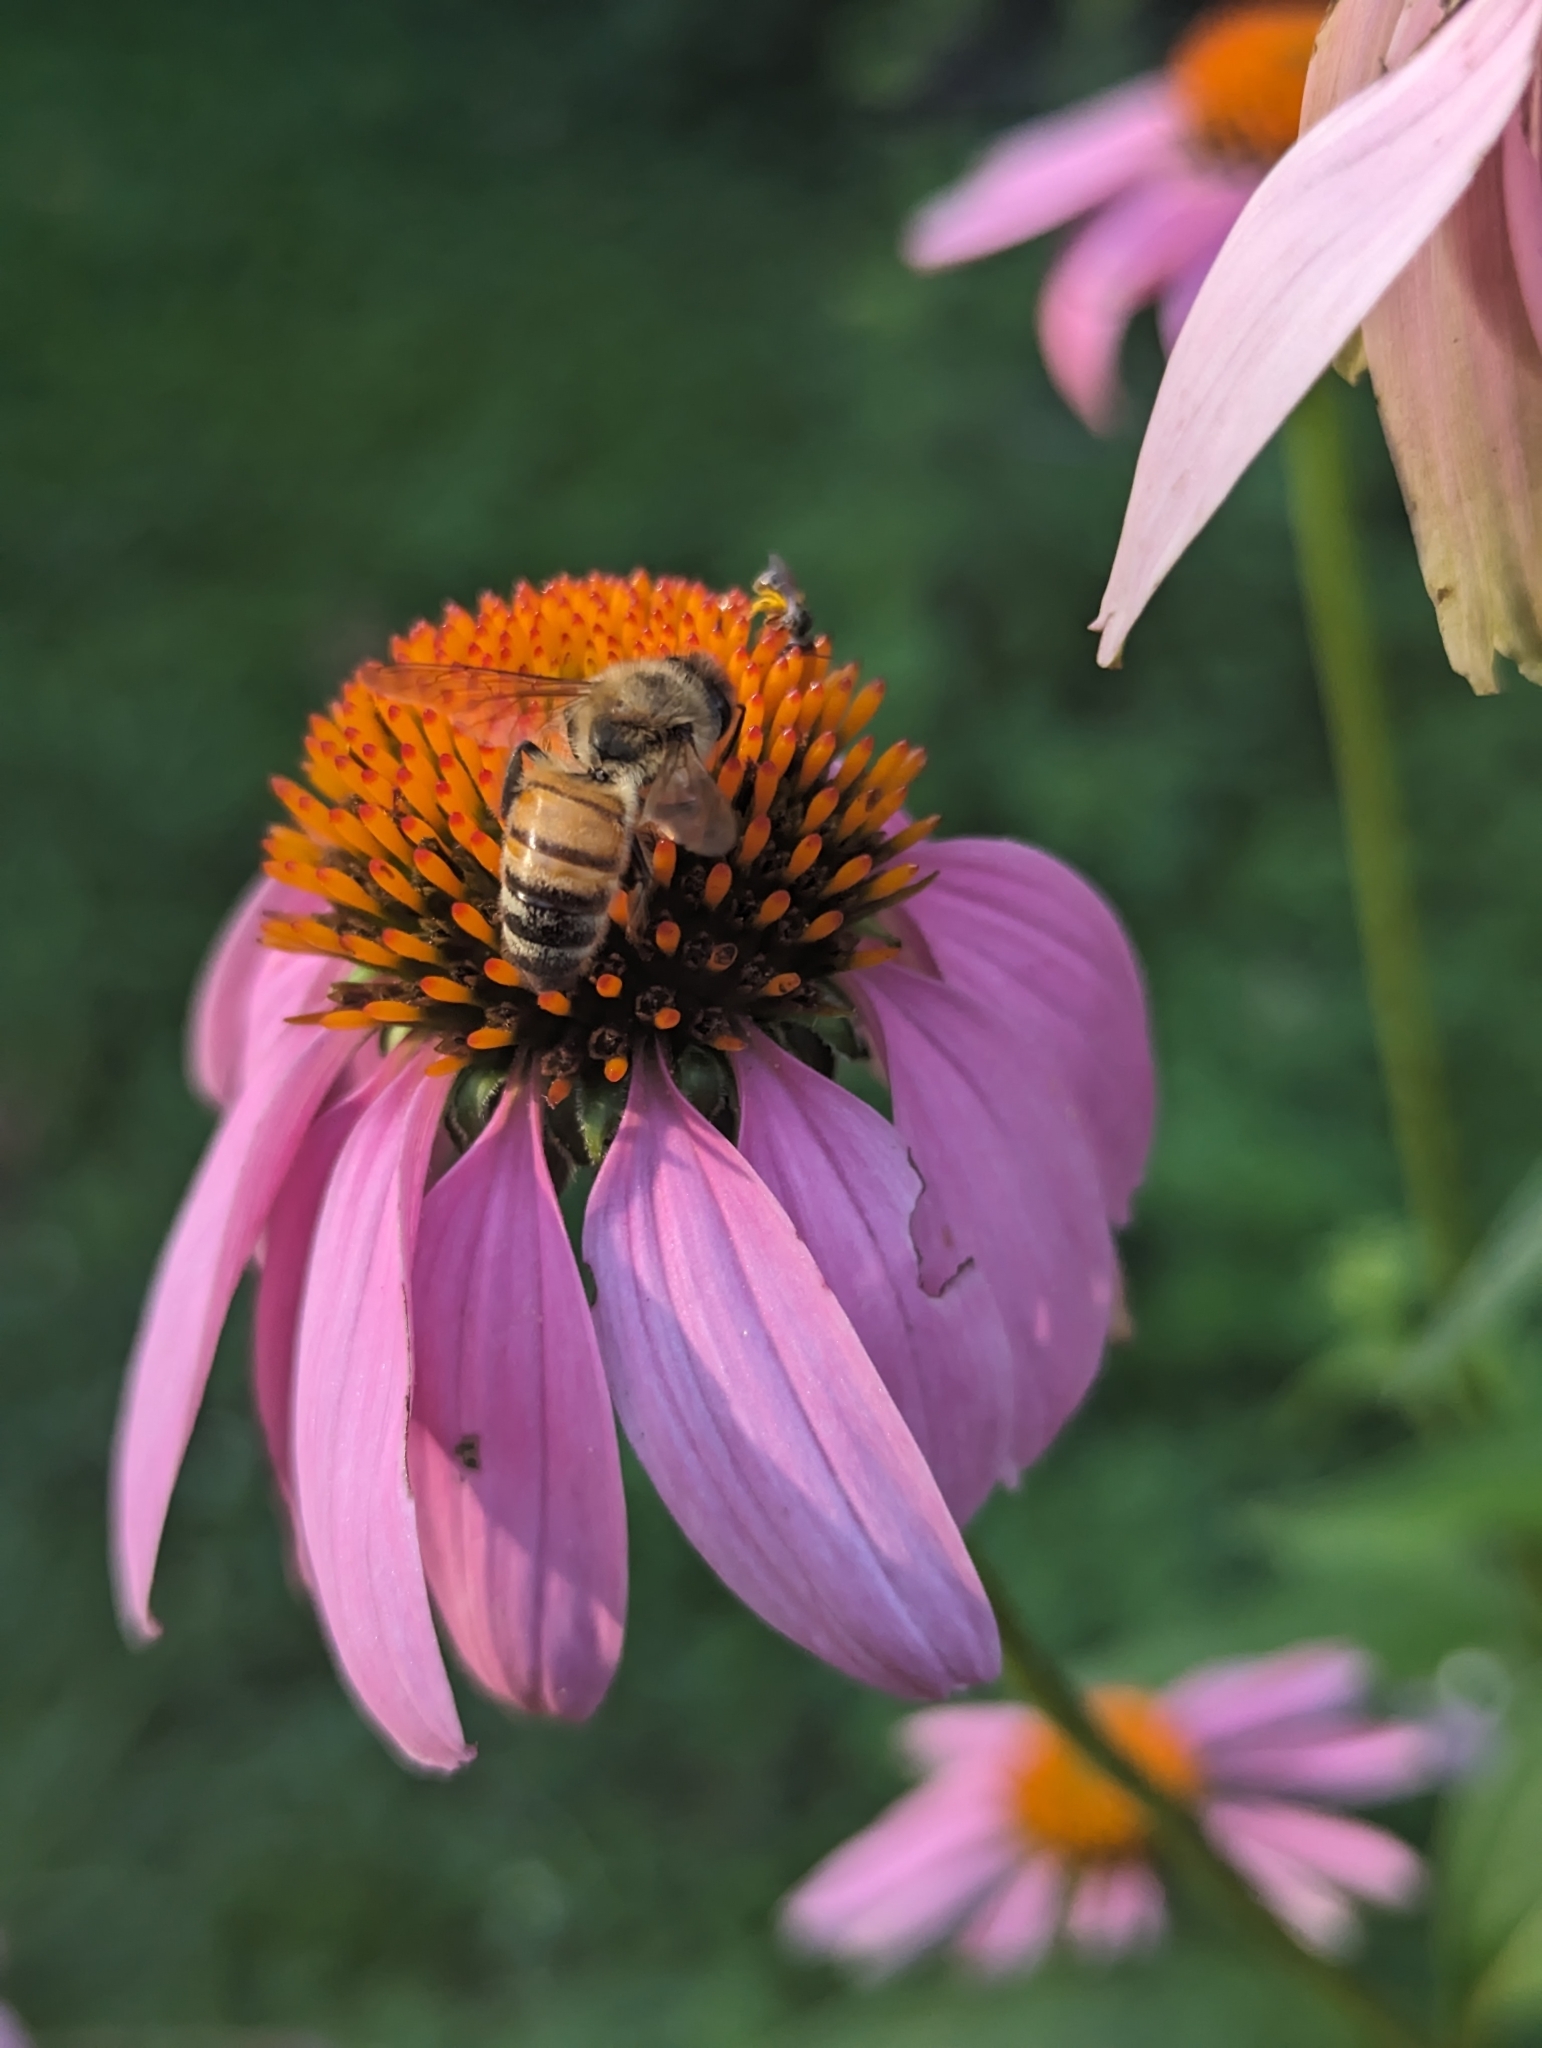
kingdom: Animalia
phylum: Arthropoda
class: Insecta
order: Hymenoptera
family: Apidae
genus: Apis
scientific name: Apis mellifera
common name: Honey bee
